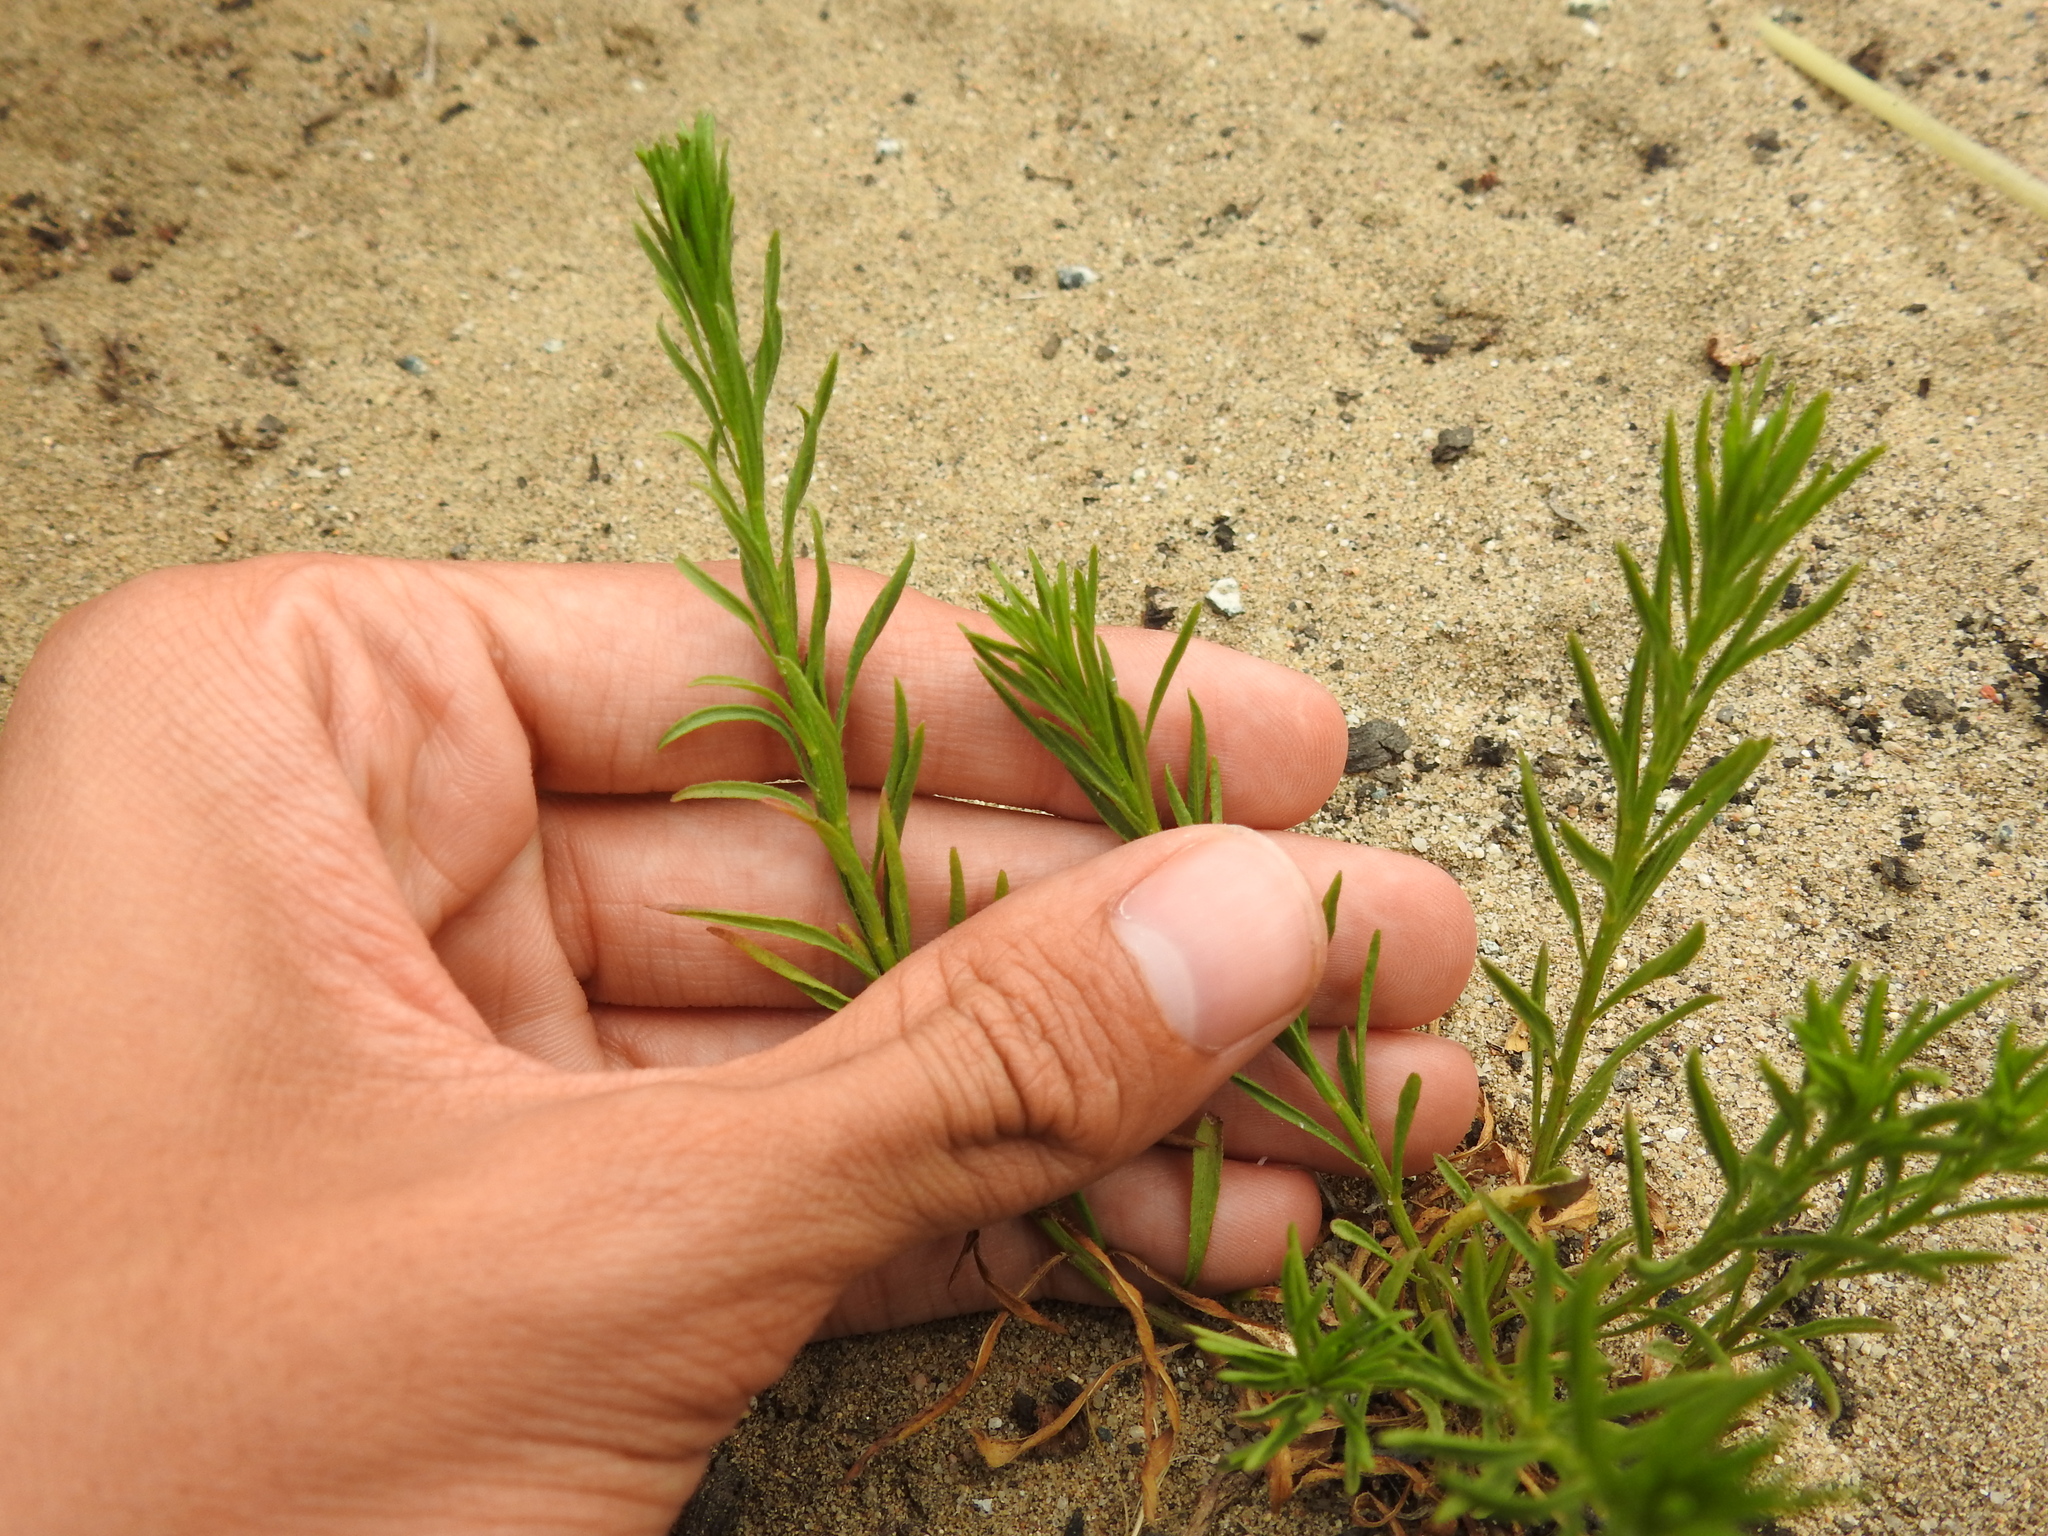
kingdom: Plantae
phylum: Tracheophyta
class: Magnoliopsida
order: Asterales
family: Asteraceae
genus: Erigeron
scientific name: Erigeron canadensis
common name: Canadian fleabane
